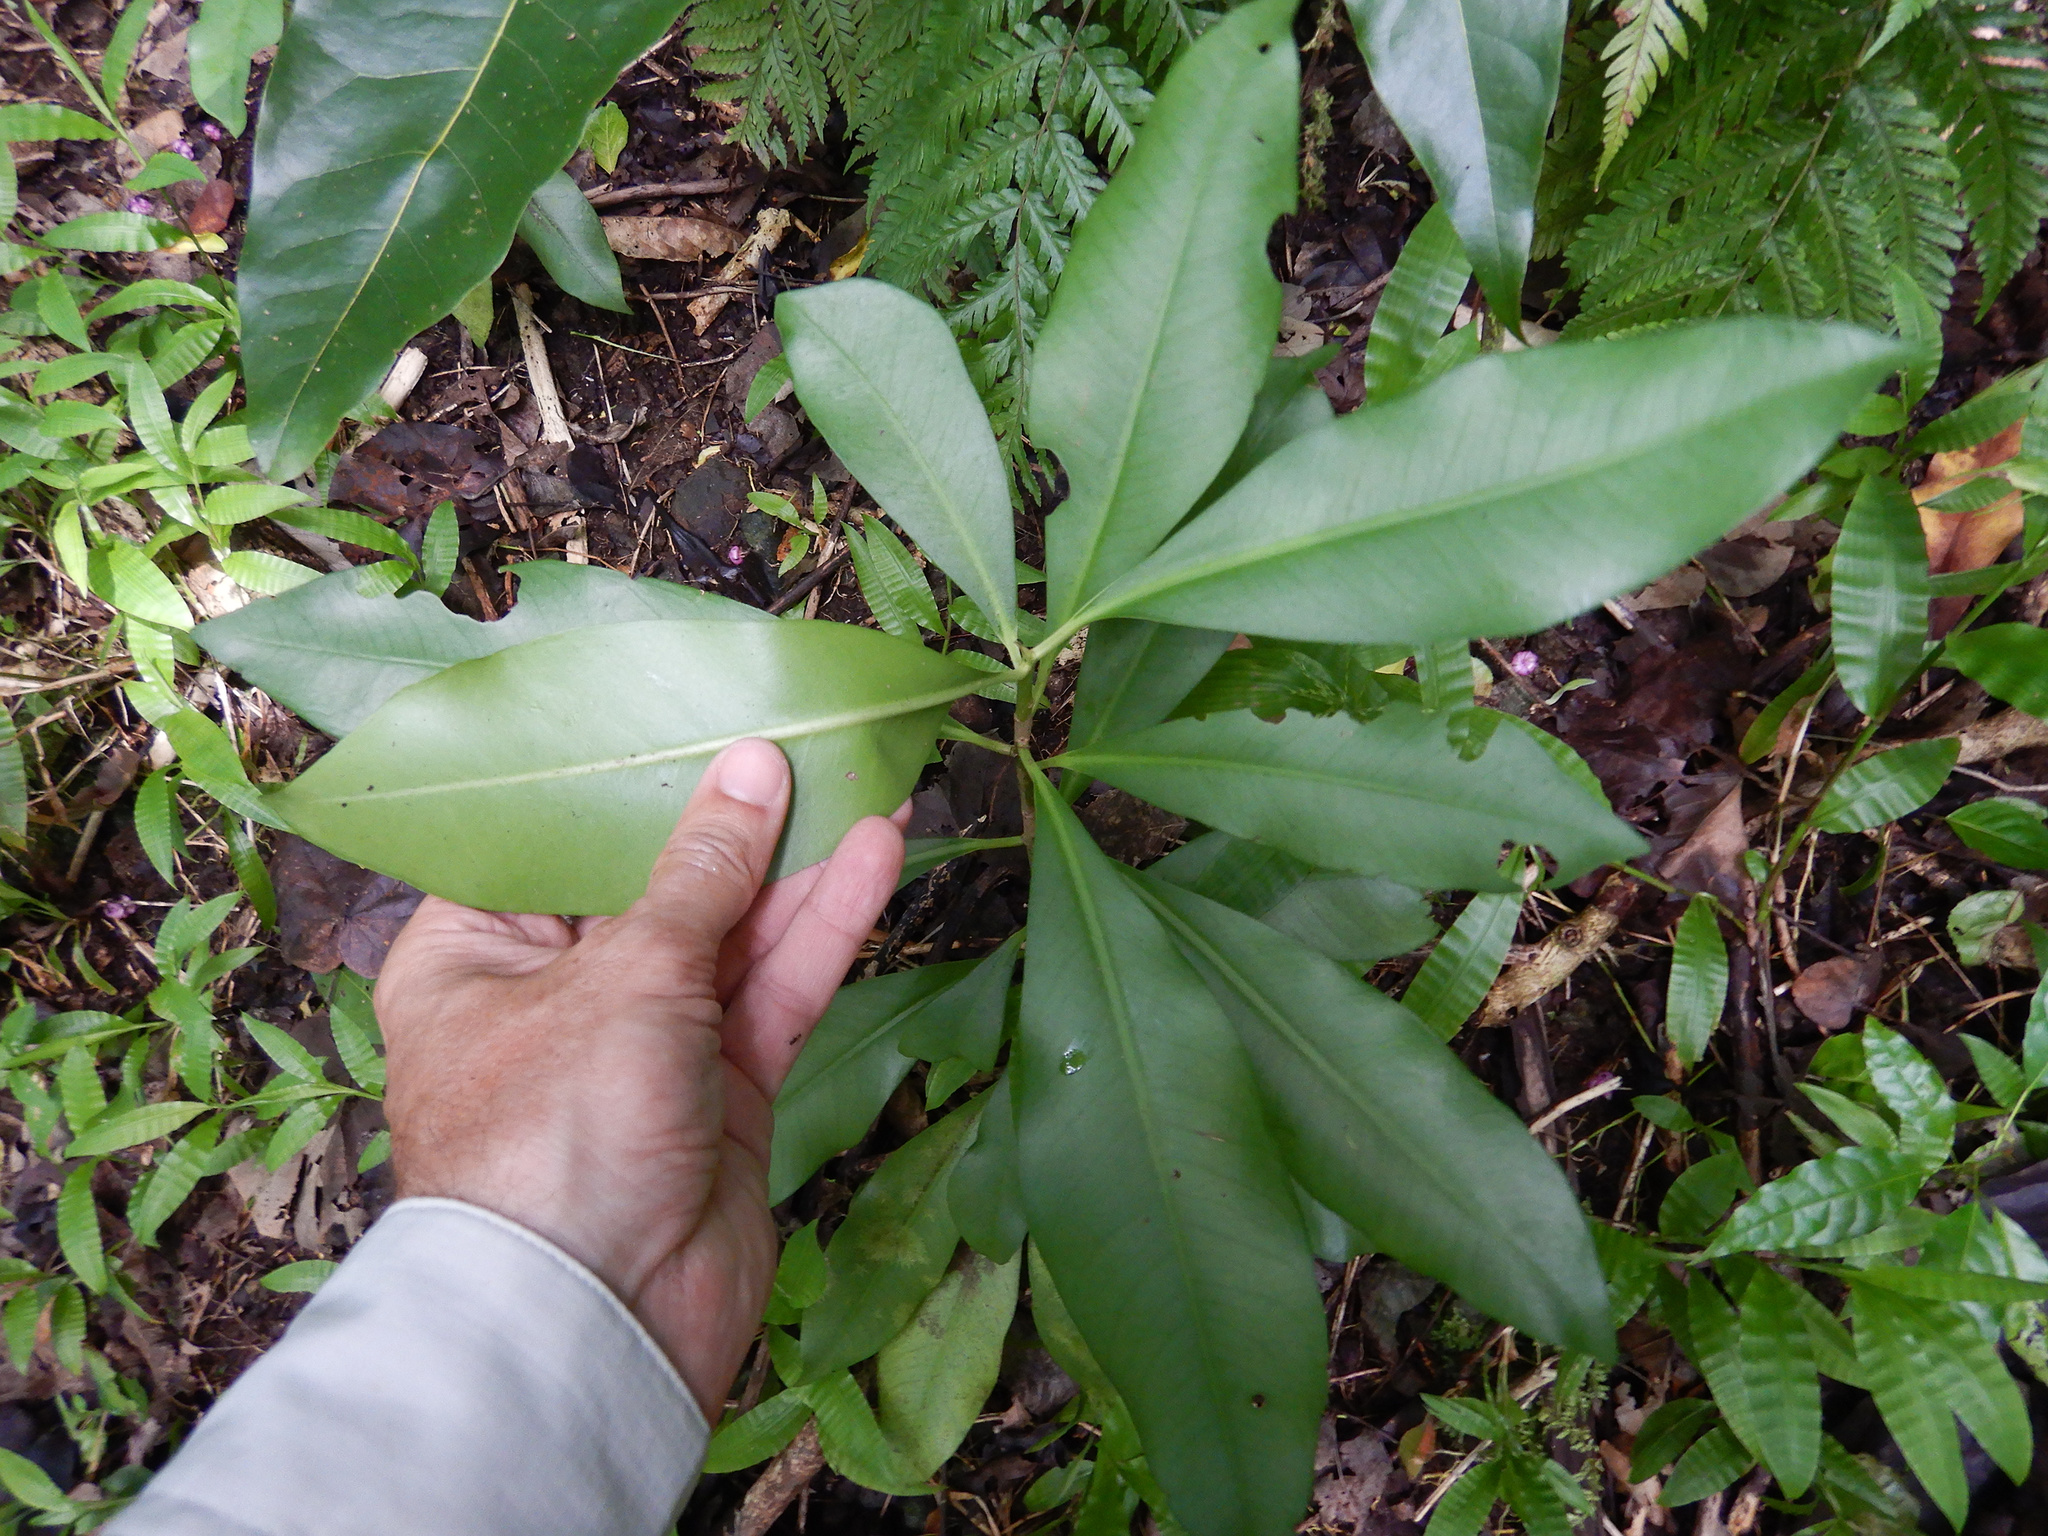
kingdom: Plantae
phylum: Tracheophyta
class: Magnoliopsida
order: Ericales
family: Primulaceae
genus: Ardisia
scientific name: Ardisia elliptica
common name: Shoebutton
